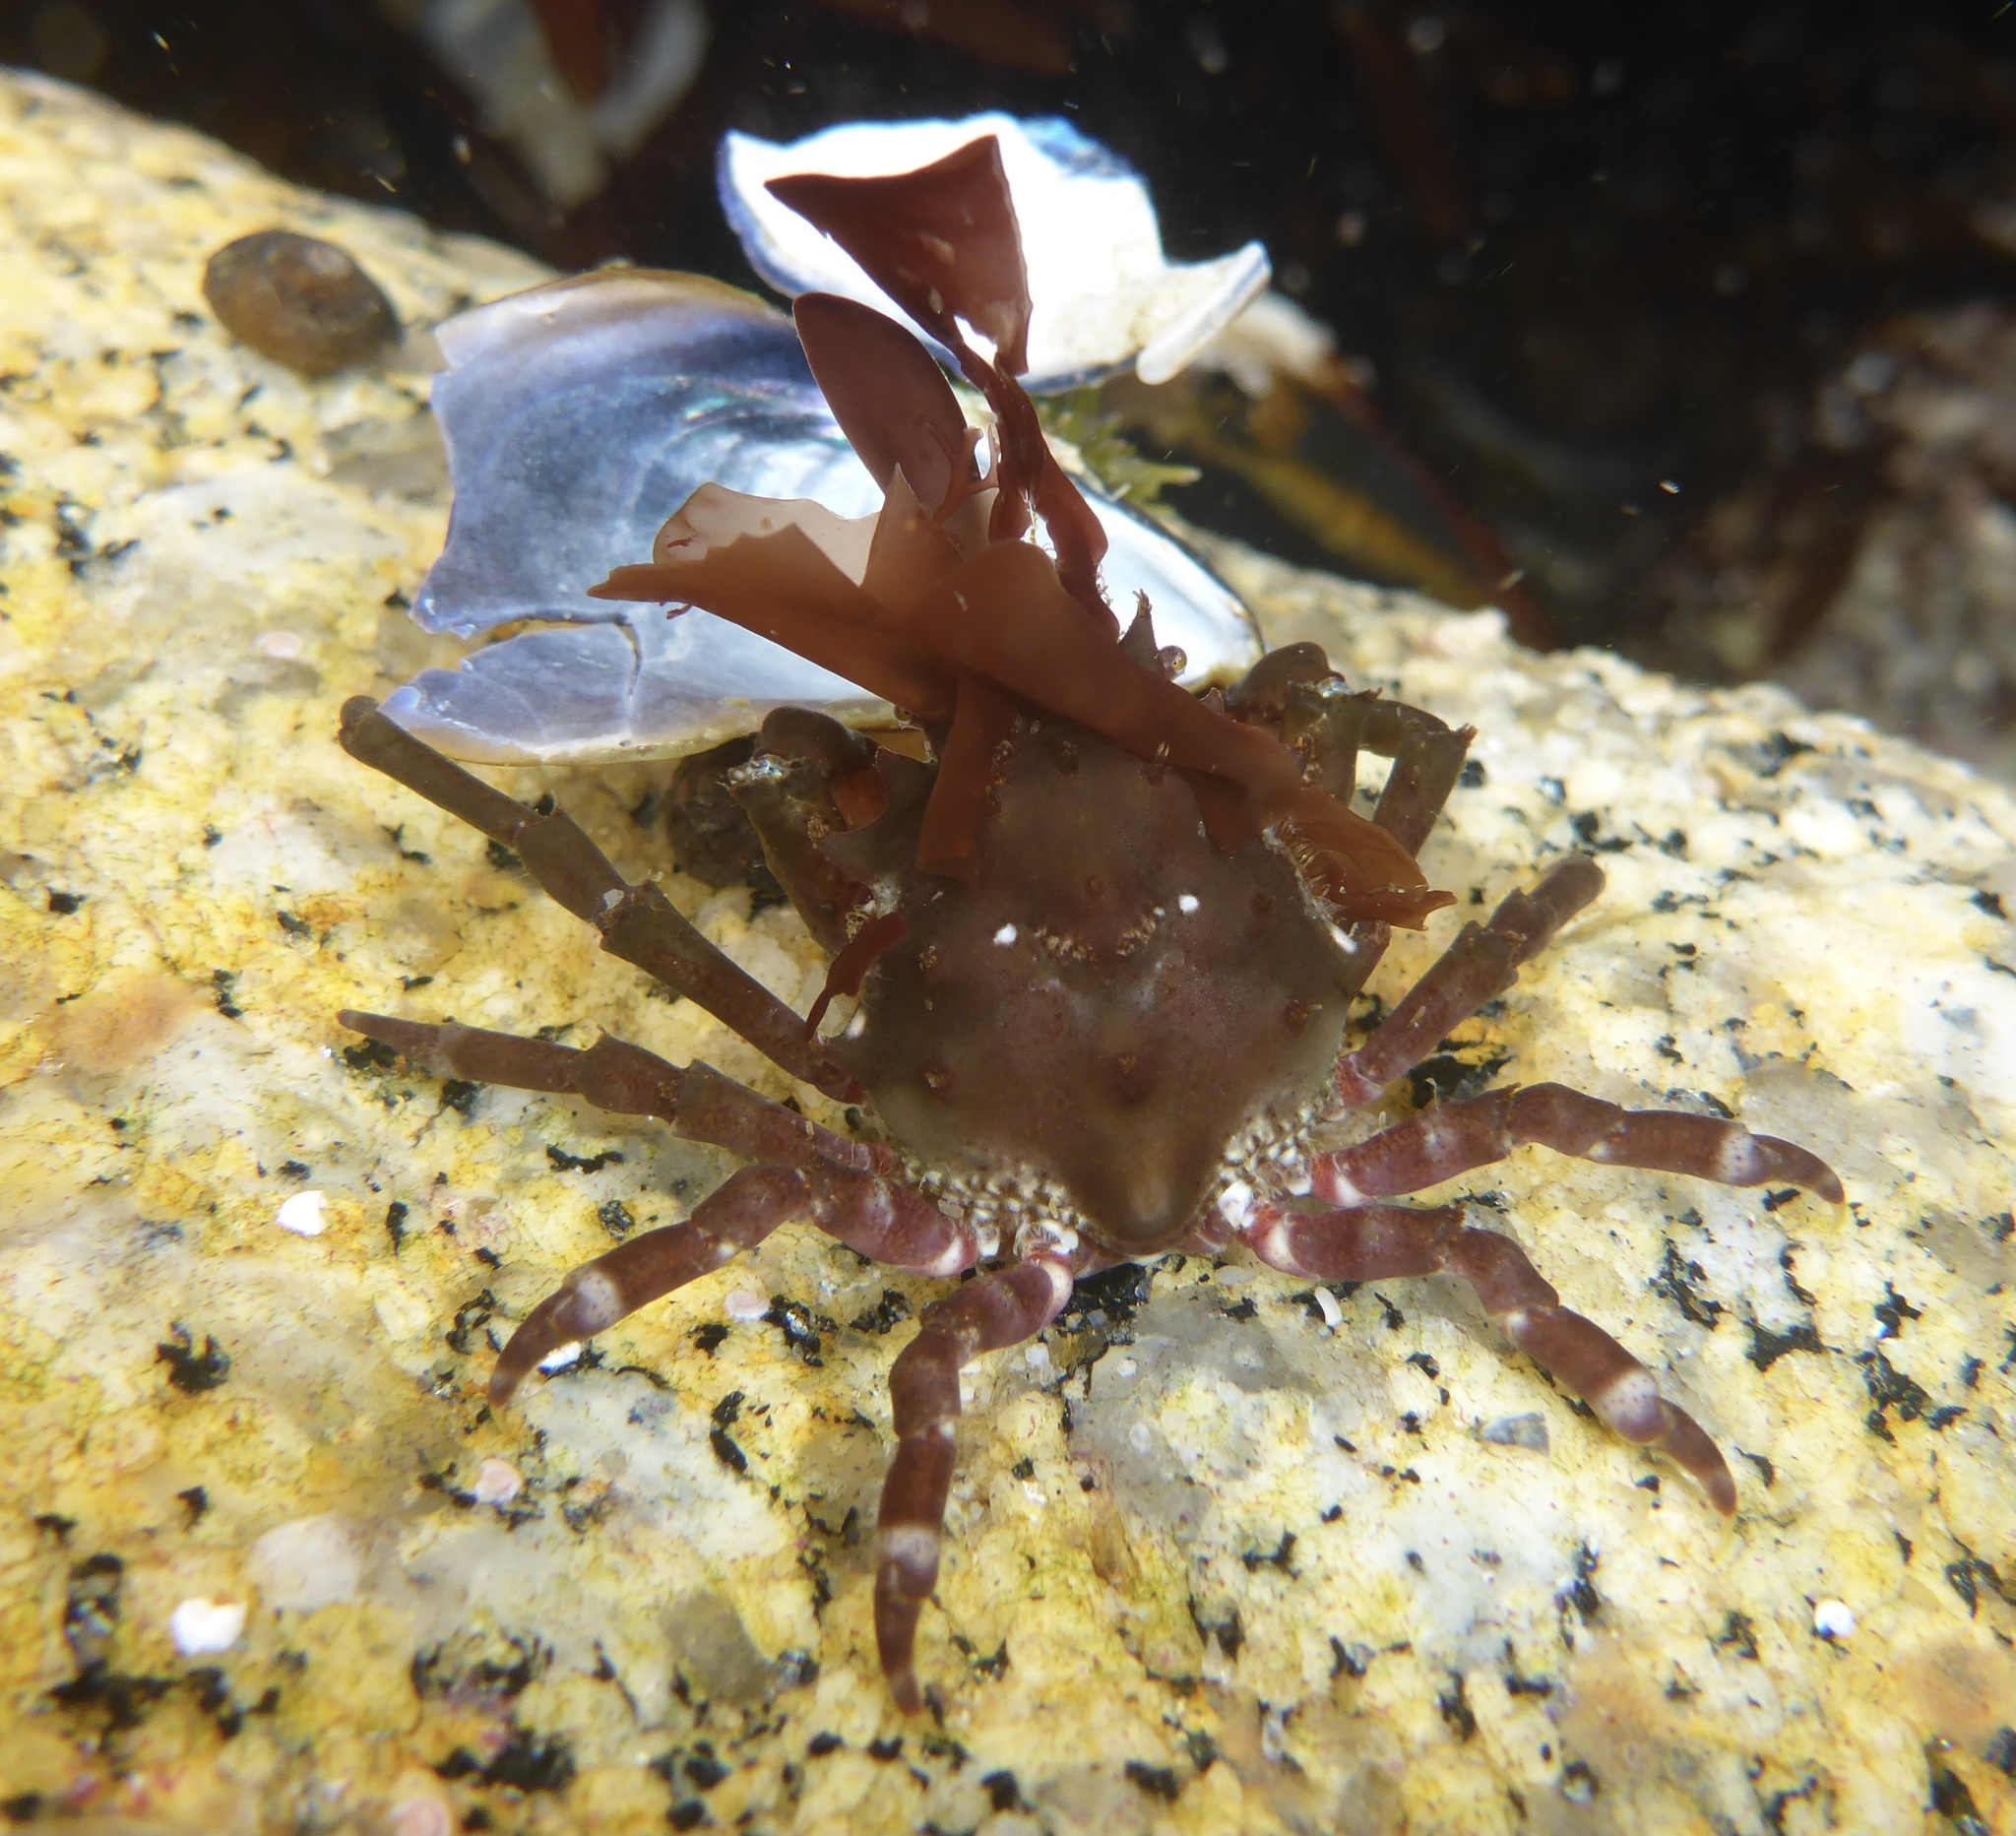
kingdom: Animalia
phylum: Arthropoda
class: Malacostraca
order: Decapoda
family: Epialtidae
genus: Pugettia
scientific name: Pugettia richii
